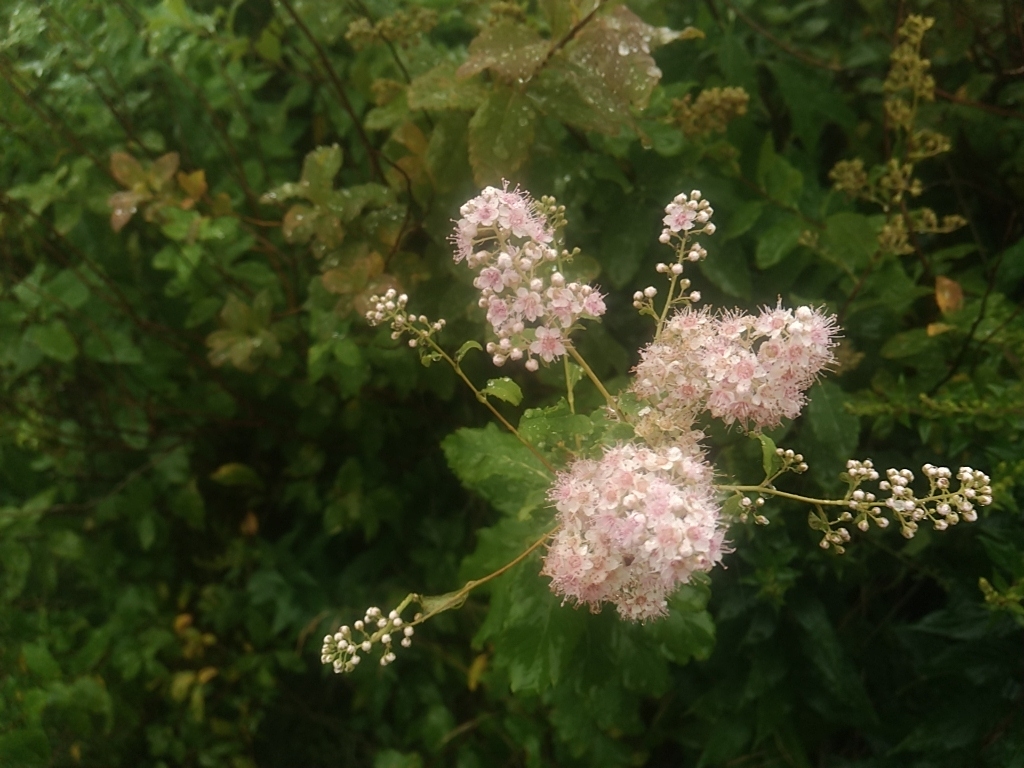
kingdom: Plantae
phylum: Tracheophyta
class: Magnoliopsida
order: Rosales
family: Rosaceae
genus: Spiraea
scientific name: Spiraea alba
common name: Pale bridewort
